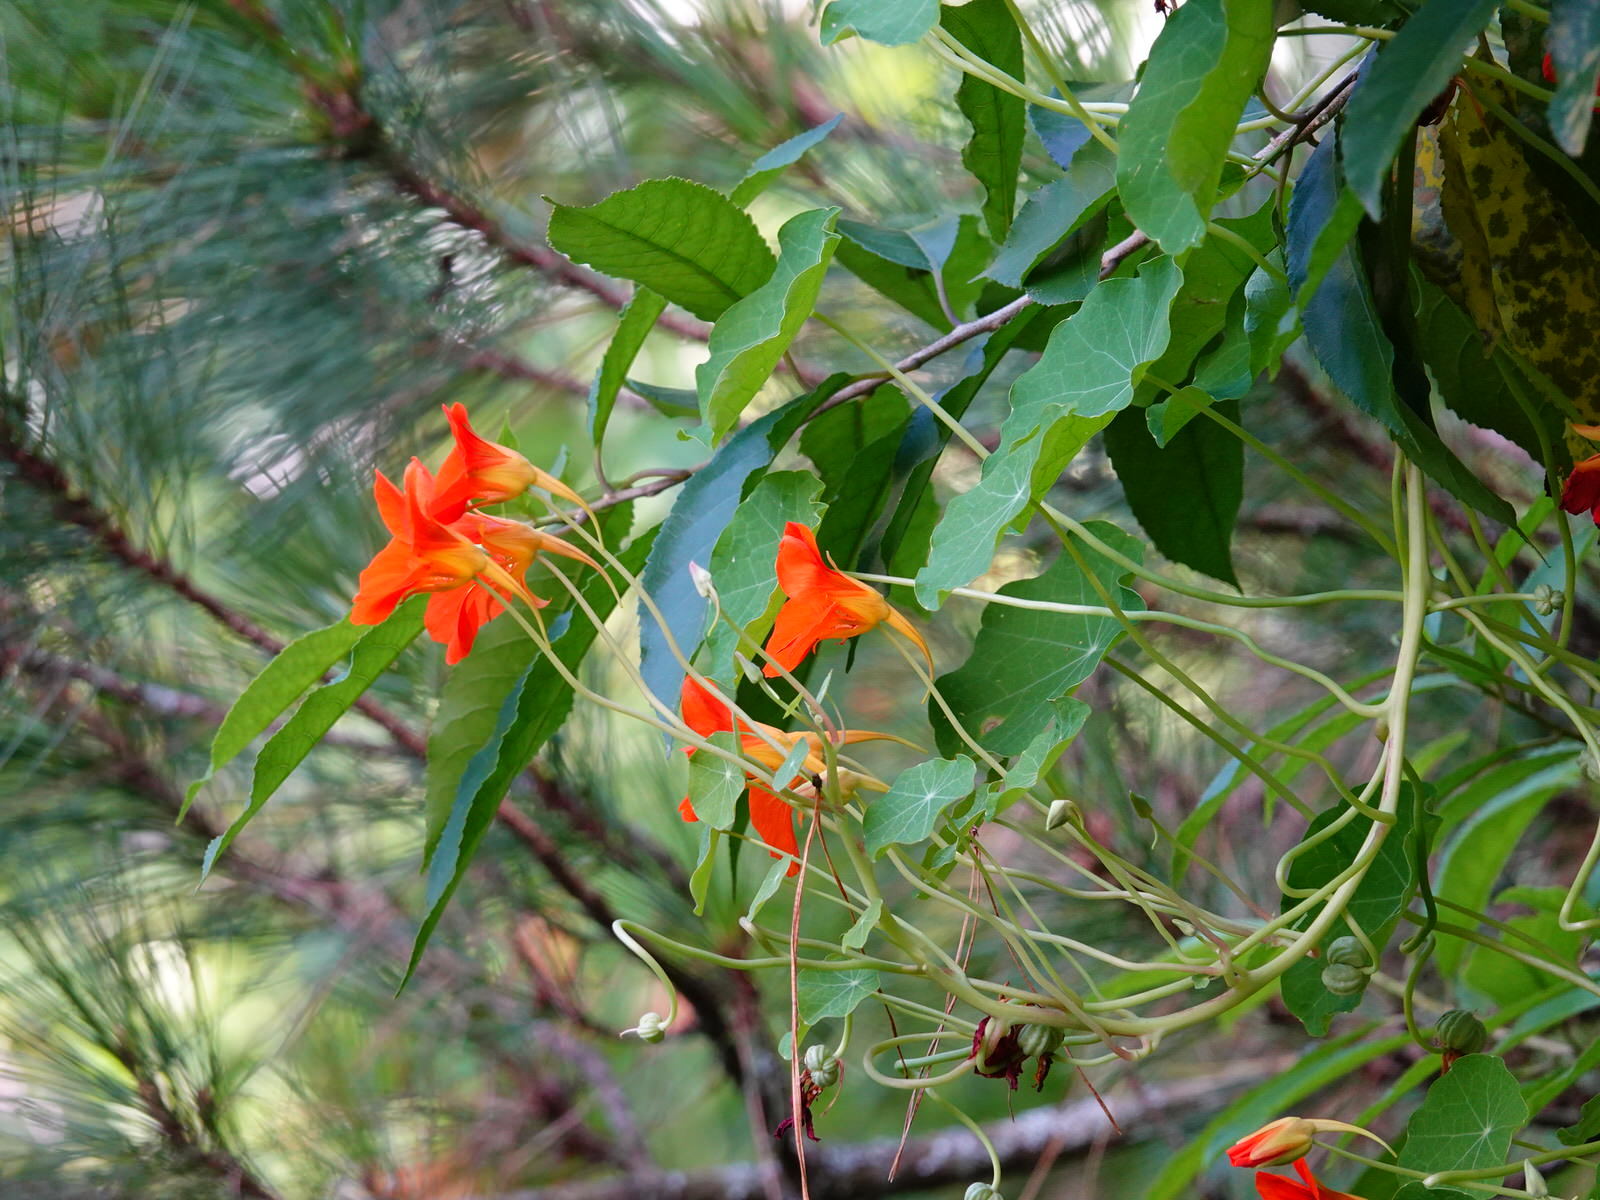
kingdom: Plantae
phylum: Tracheophyta
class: Magnoliopsida
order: Brassicales
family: Tropaeolaceae
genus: Tropaeolum
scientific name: Tropaeolum majus
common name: Nasturtium
